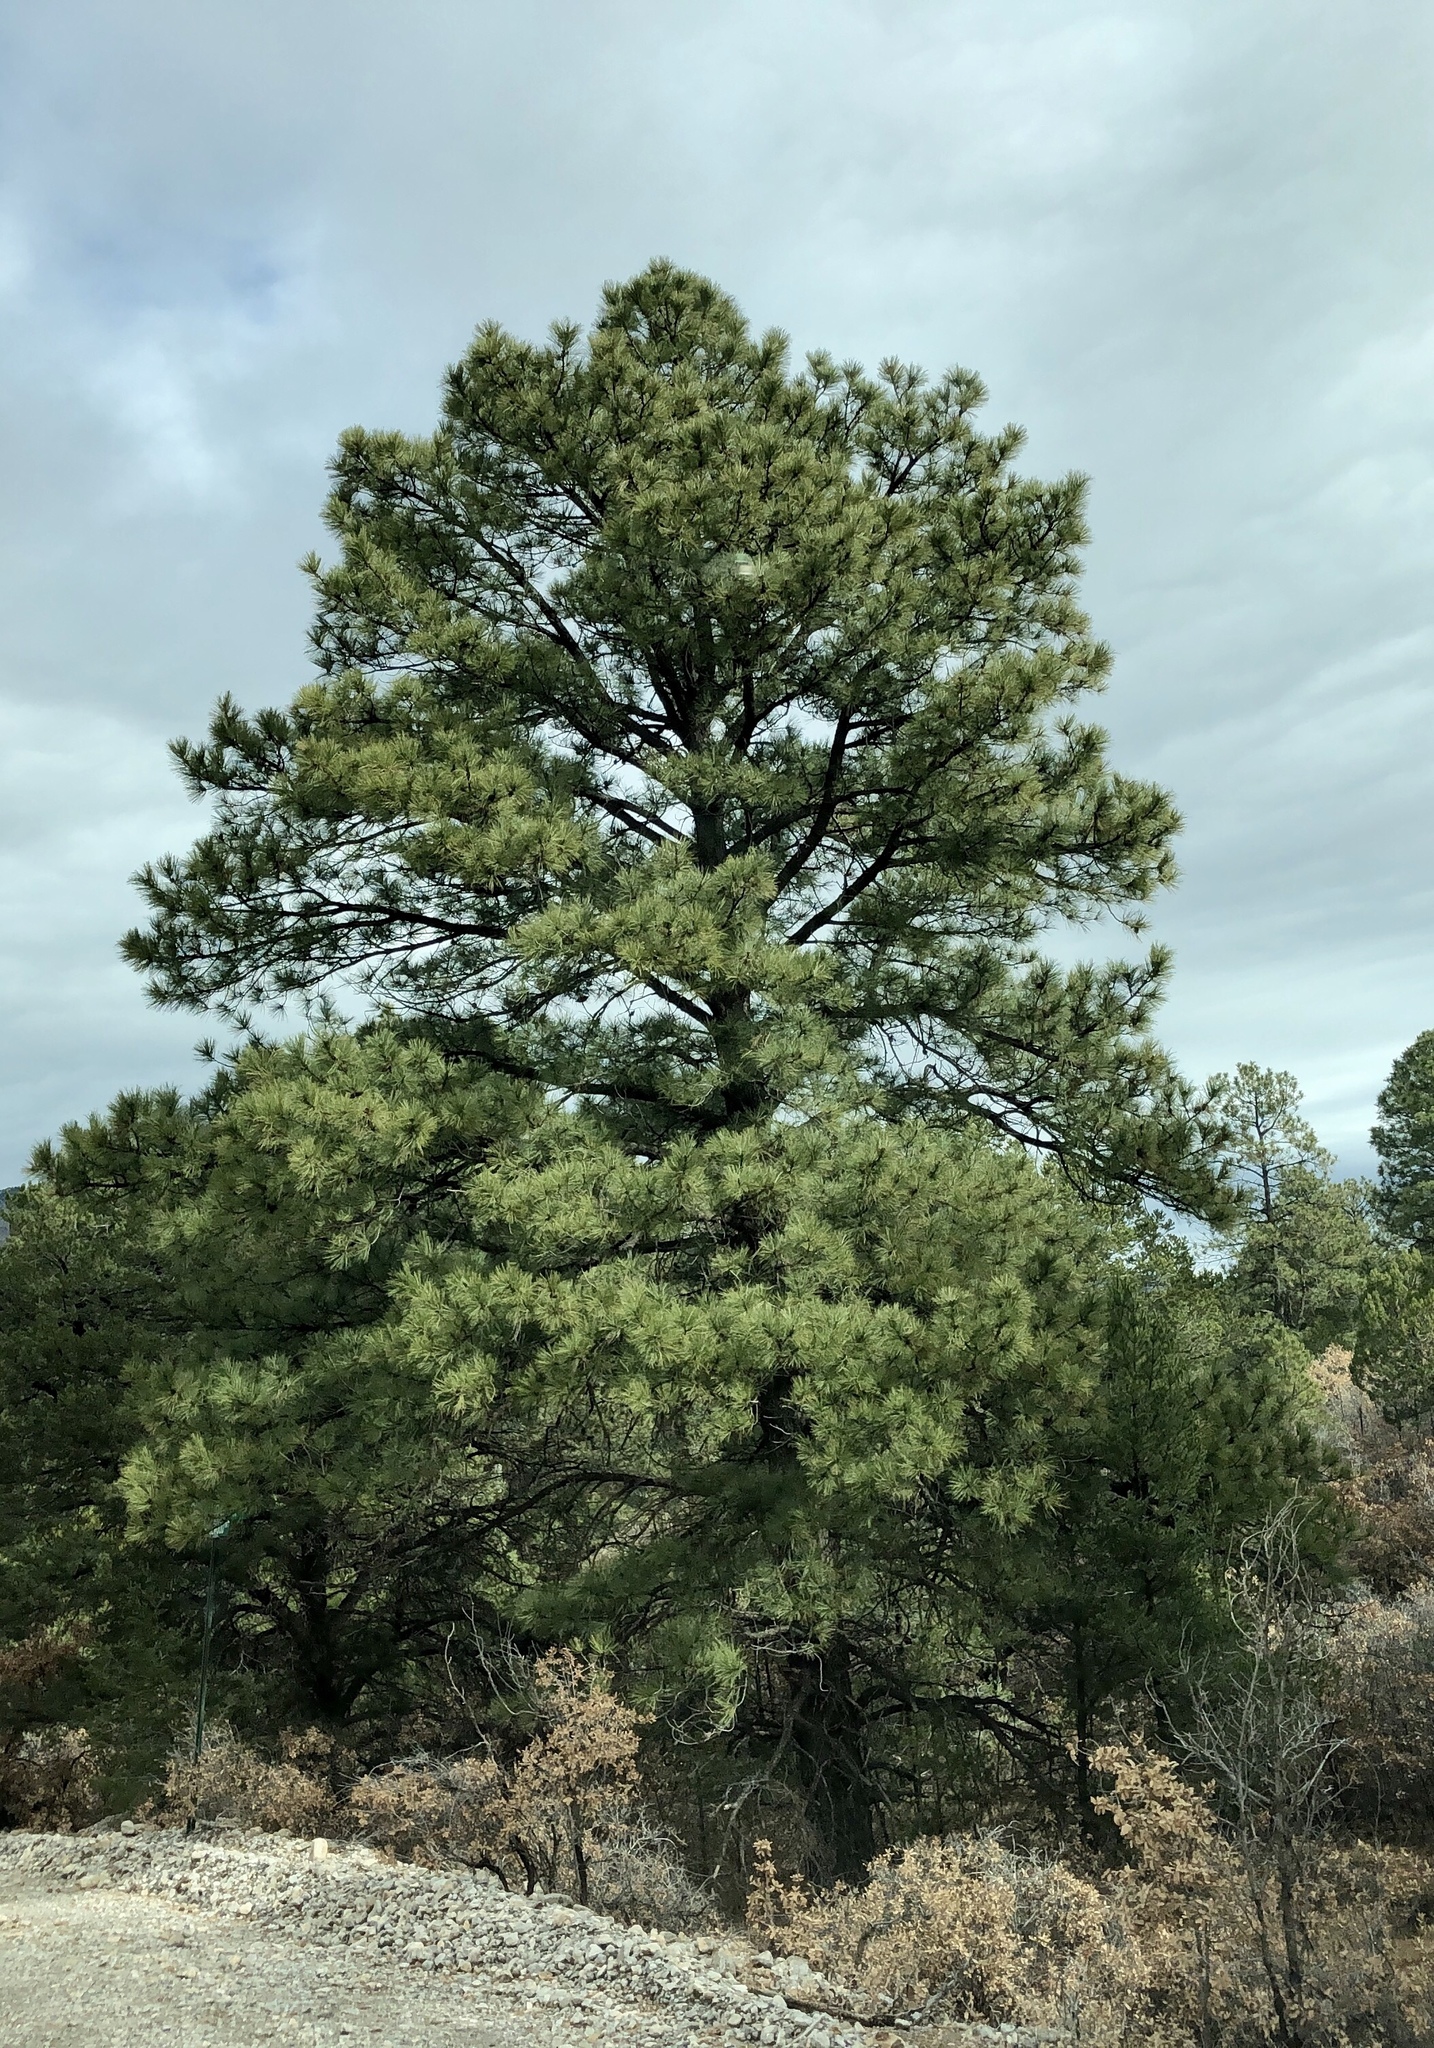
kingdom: Plantae
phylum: Tracheophyta
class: Pinopsida
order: Pinales
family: Pinaceae
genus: Pinus
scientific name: Pinus ponderosa
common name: Western yellow-pine
